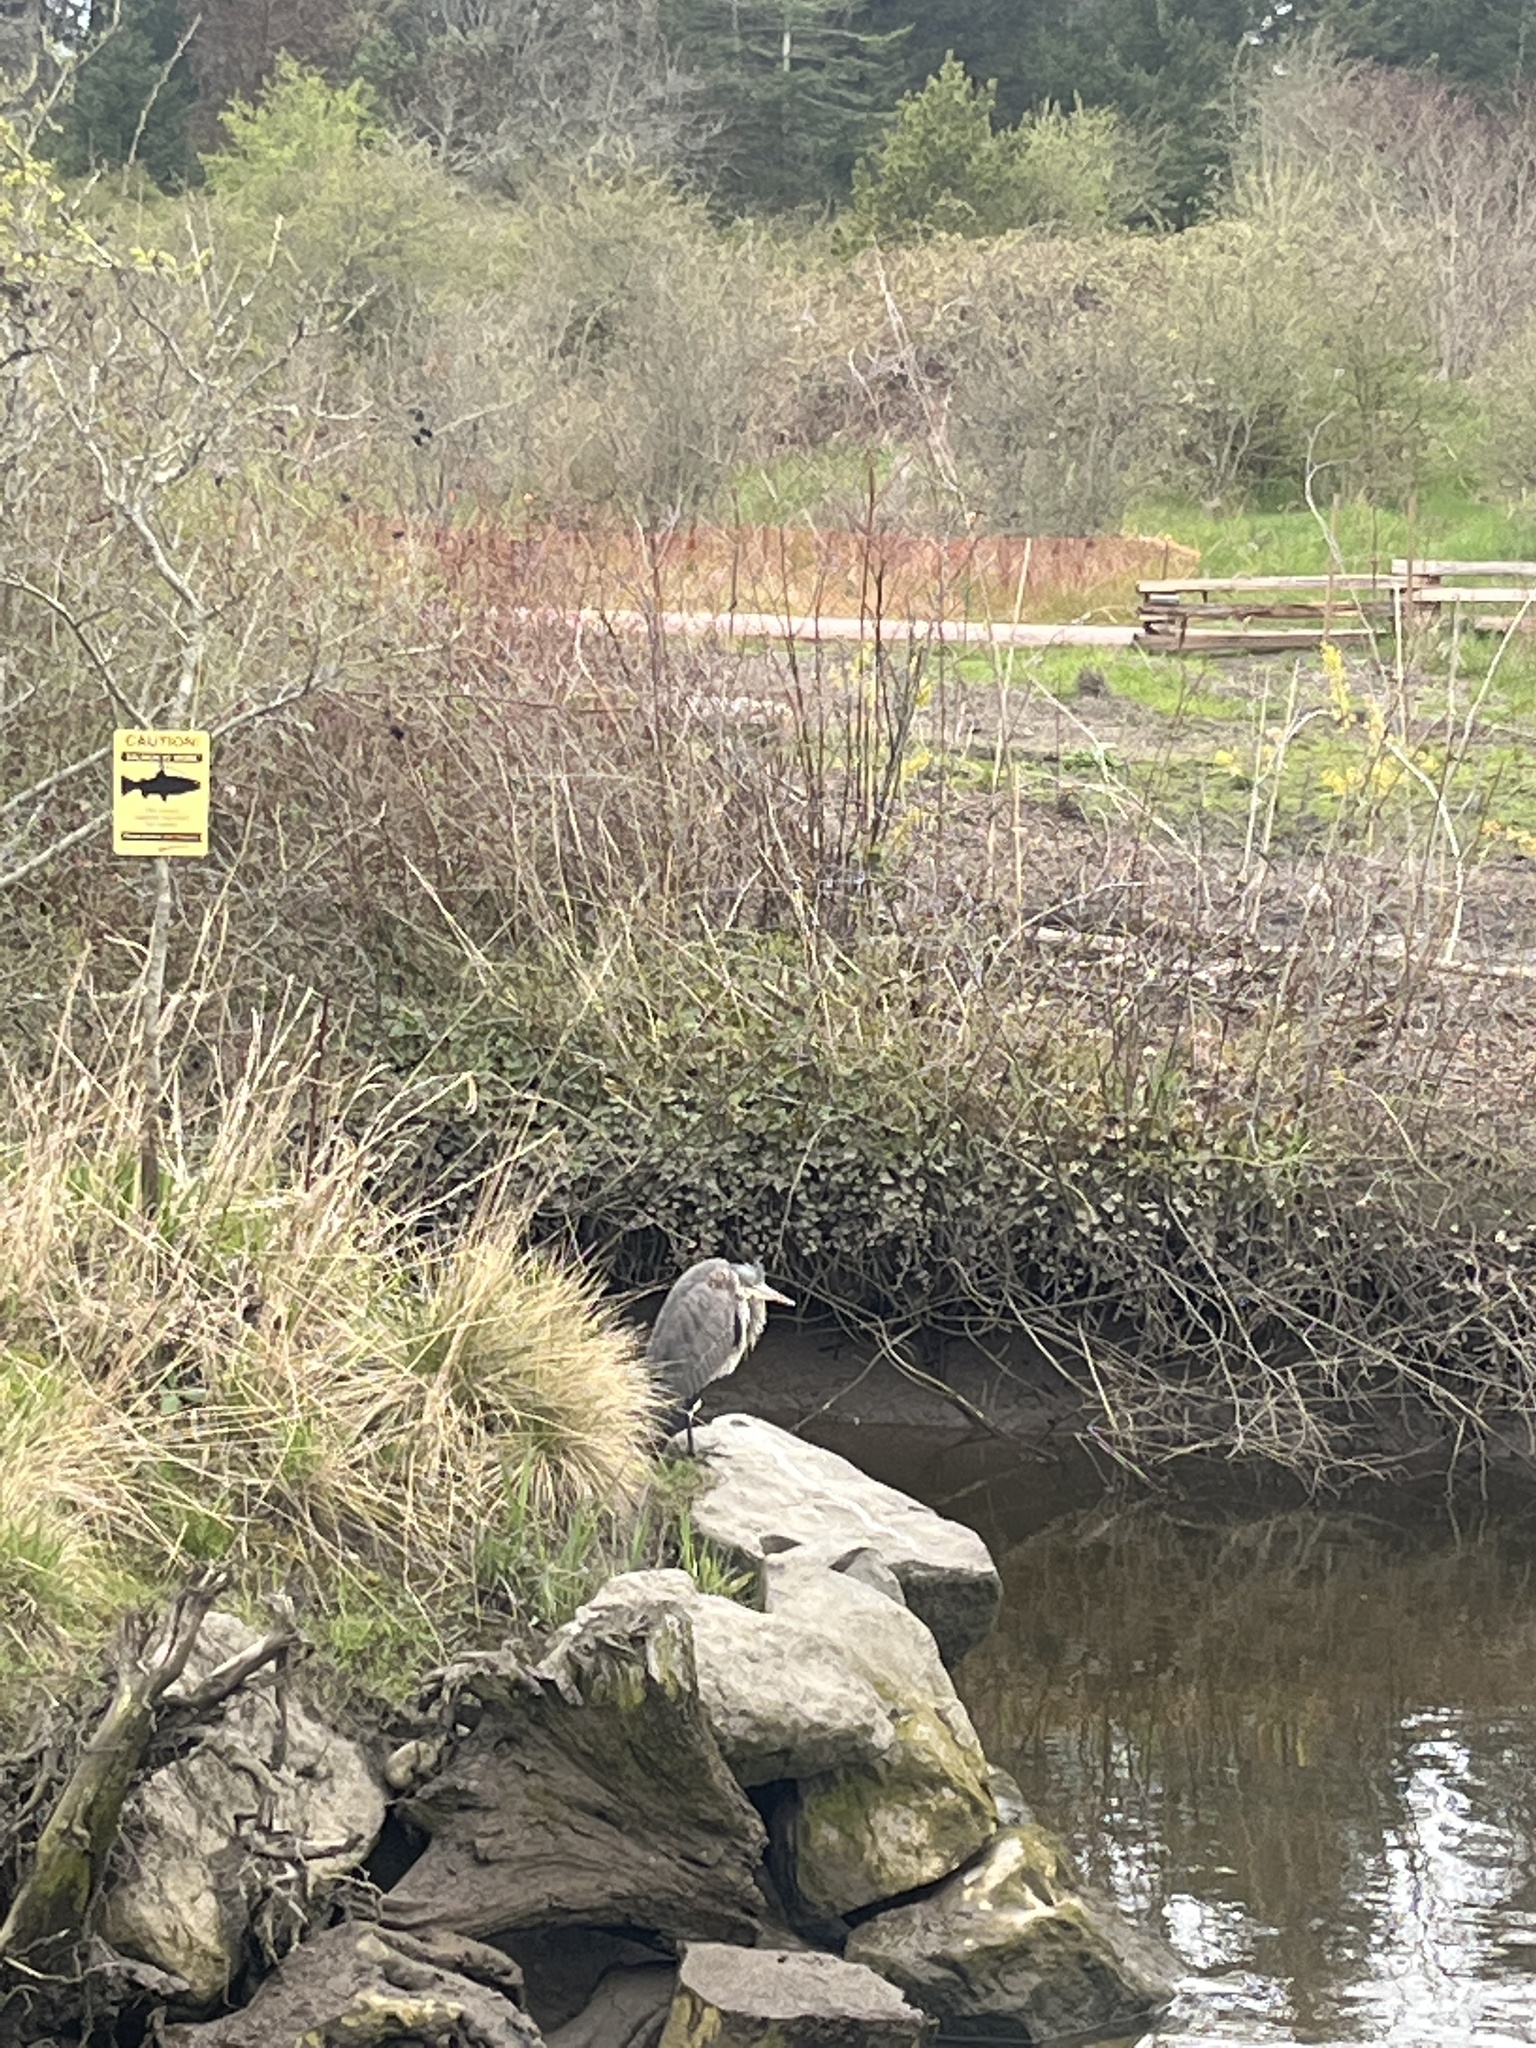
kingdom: Animalia
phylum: Chordata
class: Aves
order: Pelecaniformes
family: Ardeidae
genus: Ardea
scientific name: Ardea herodias
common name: Great blue heron
